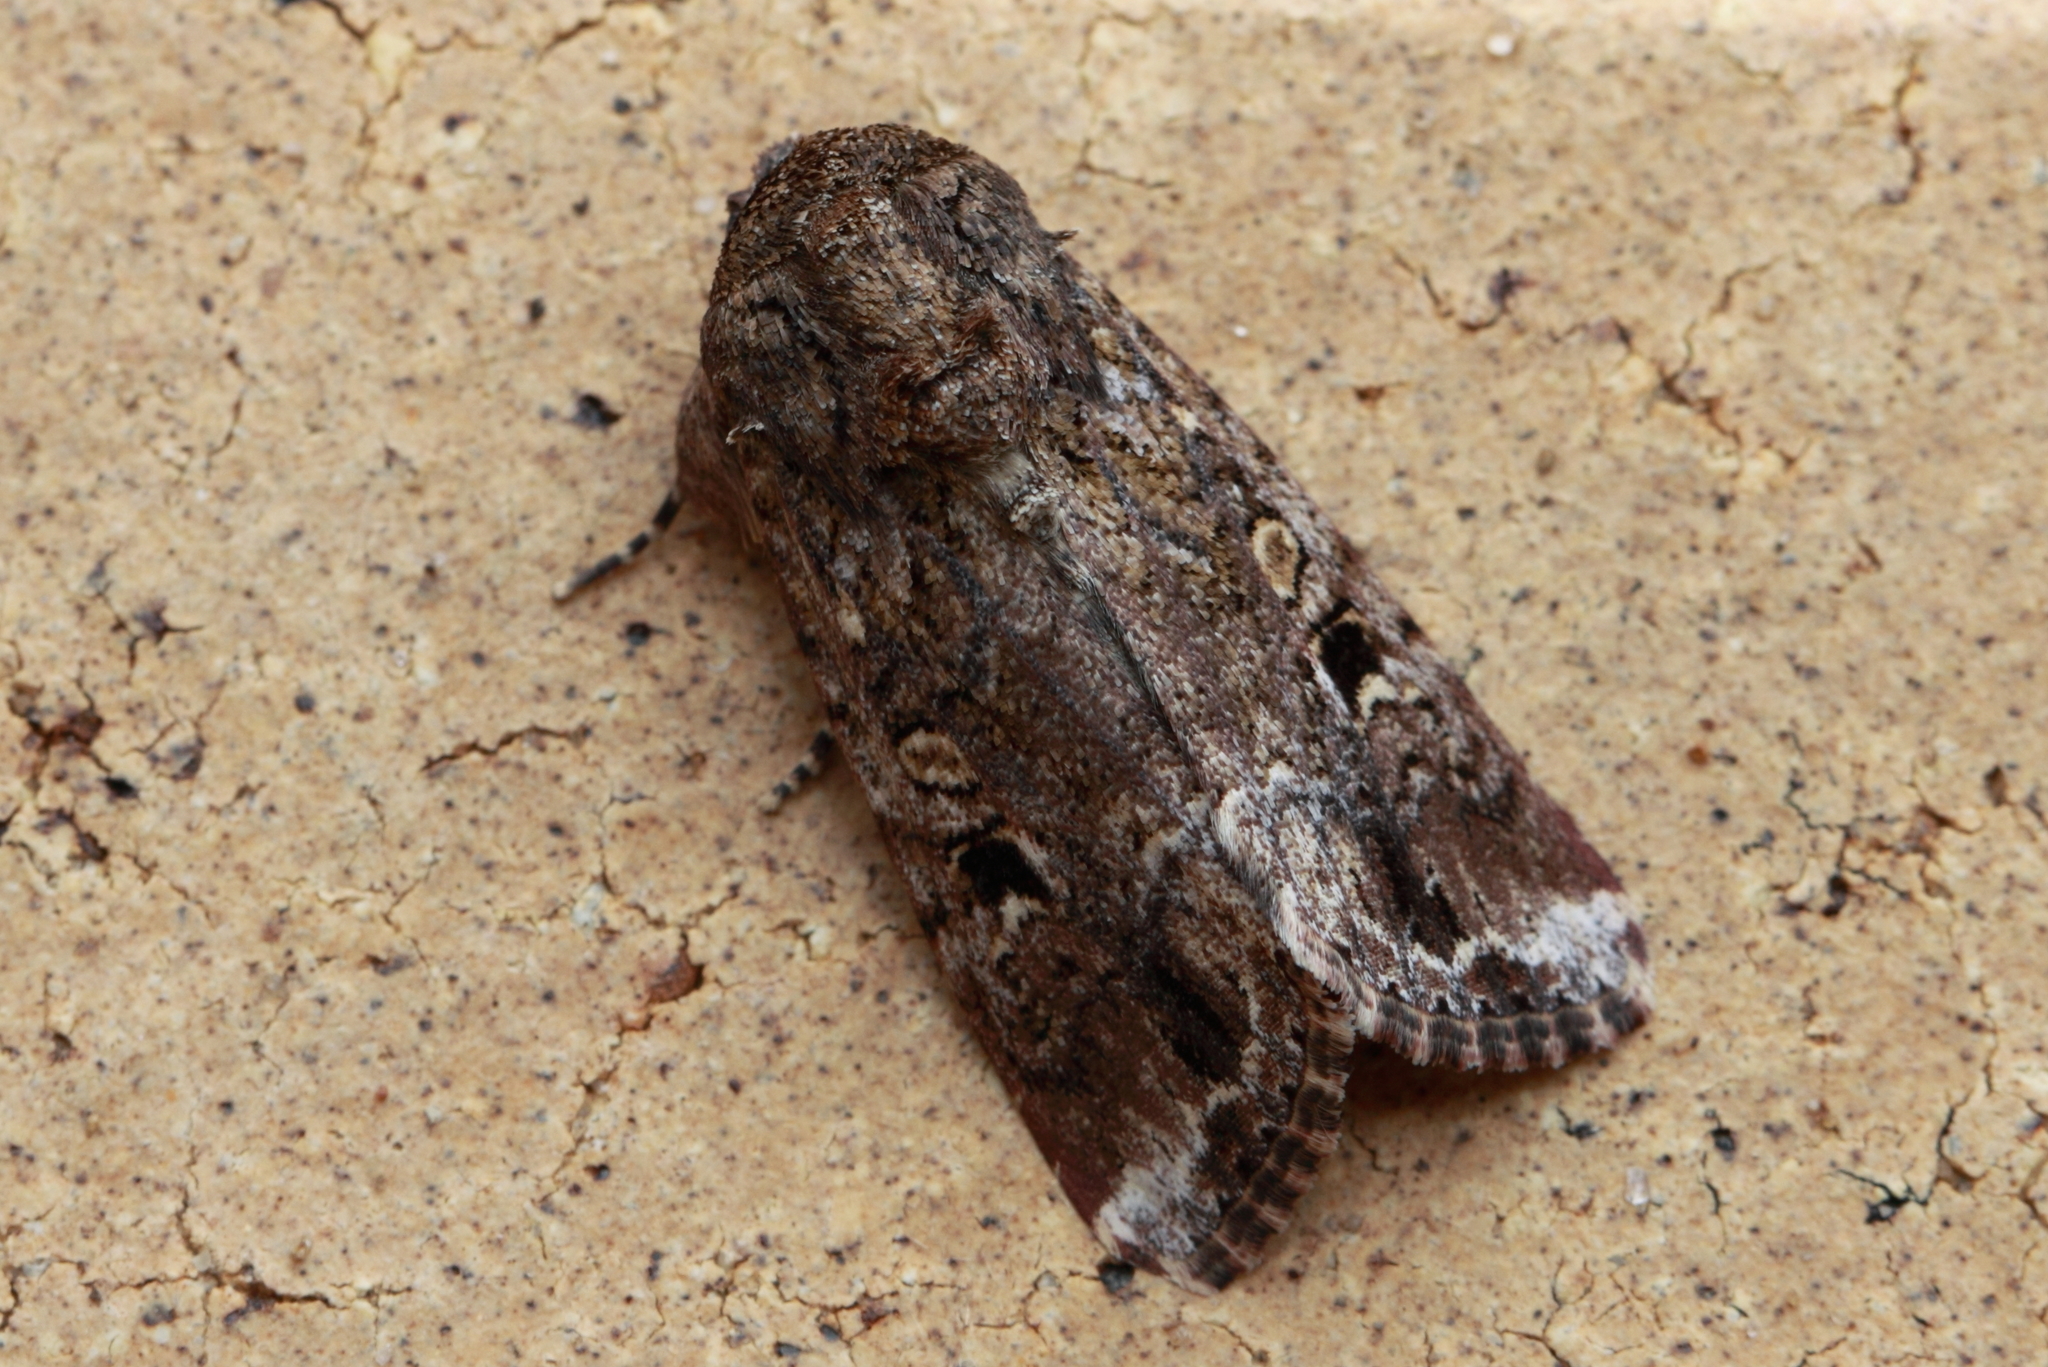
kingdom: Animalia
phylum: Arthropoda
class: Insecta
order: Lepidoptera
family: Noctuidae
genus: Spodoptera
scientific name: Spodoptera mauritia
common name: Lawn armyworm
